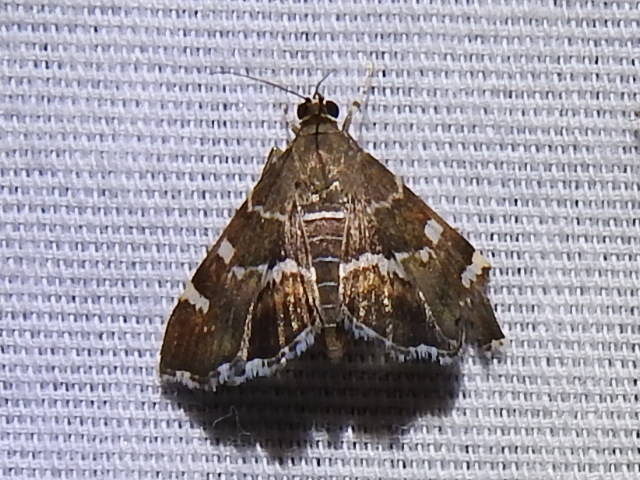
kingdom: Animalia
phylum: Arthropoda
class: Insecta
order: Lepidoptera
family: Crambidae
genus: Hymenia
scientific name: Hymenia perspectalis
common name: Spotted beet webworm
